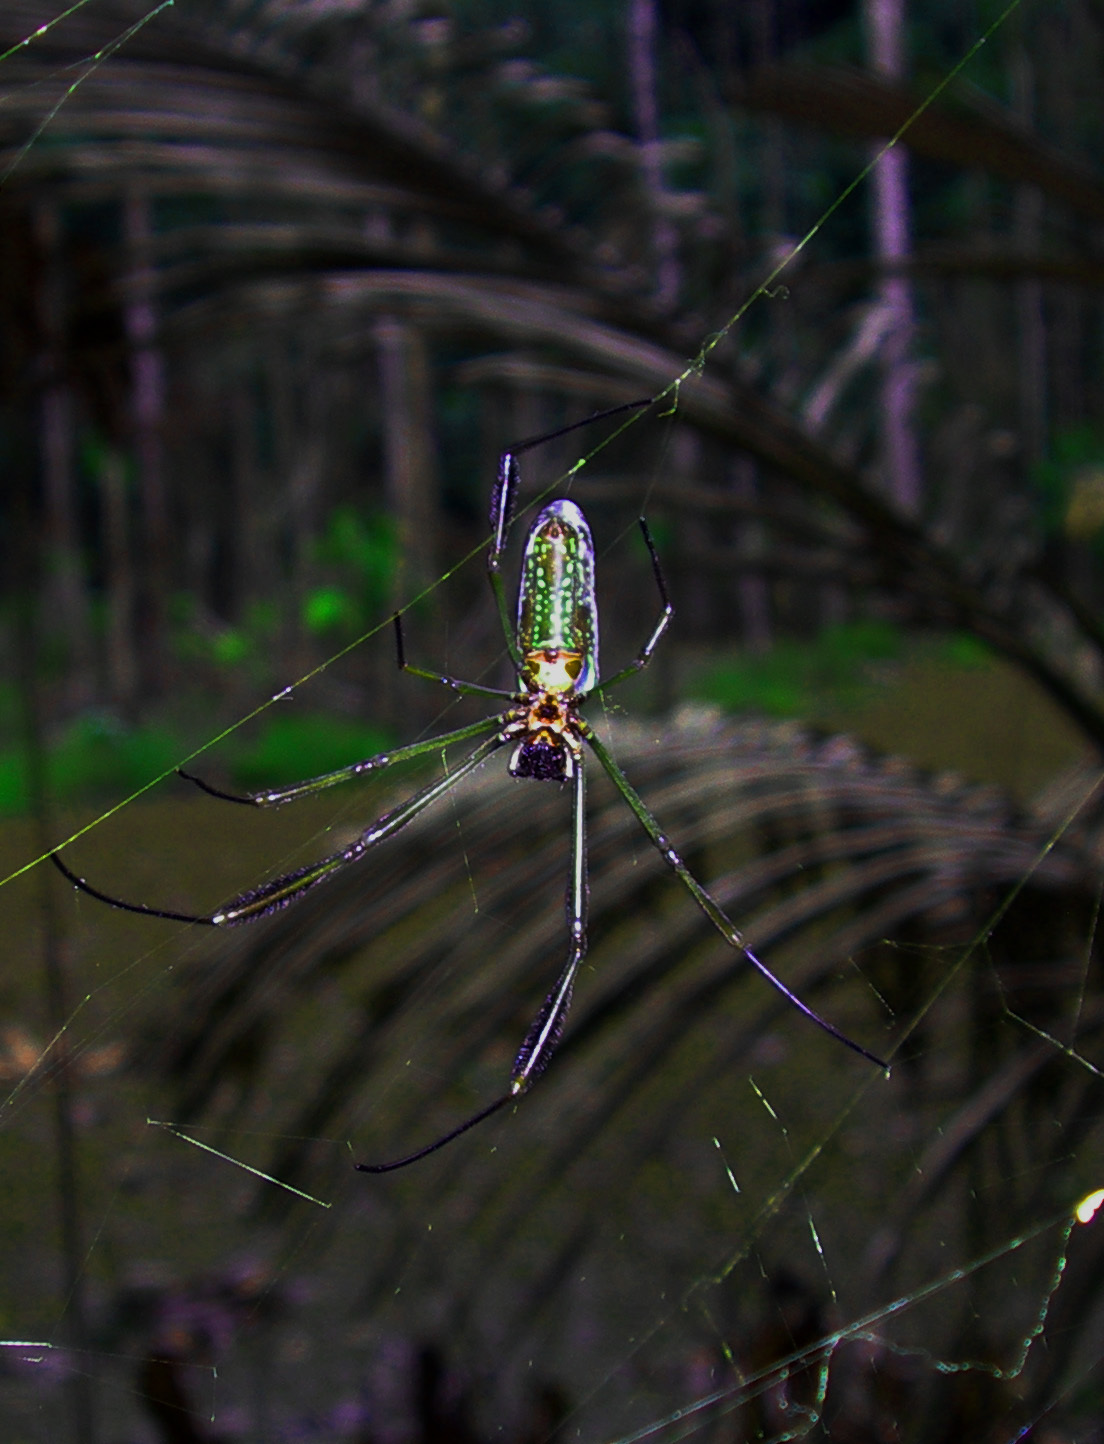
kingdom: Animalia
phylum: Arthropoda
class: Arachnida
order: Araneae
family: Araneidae
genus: Trichonephila
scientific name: Trichonephila clavipes
